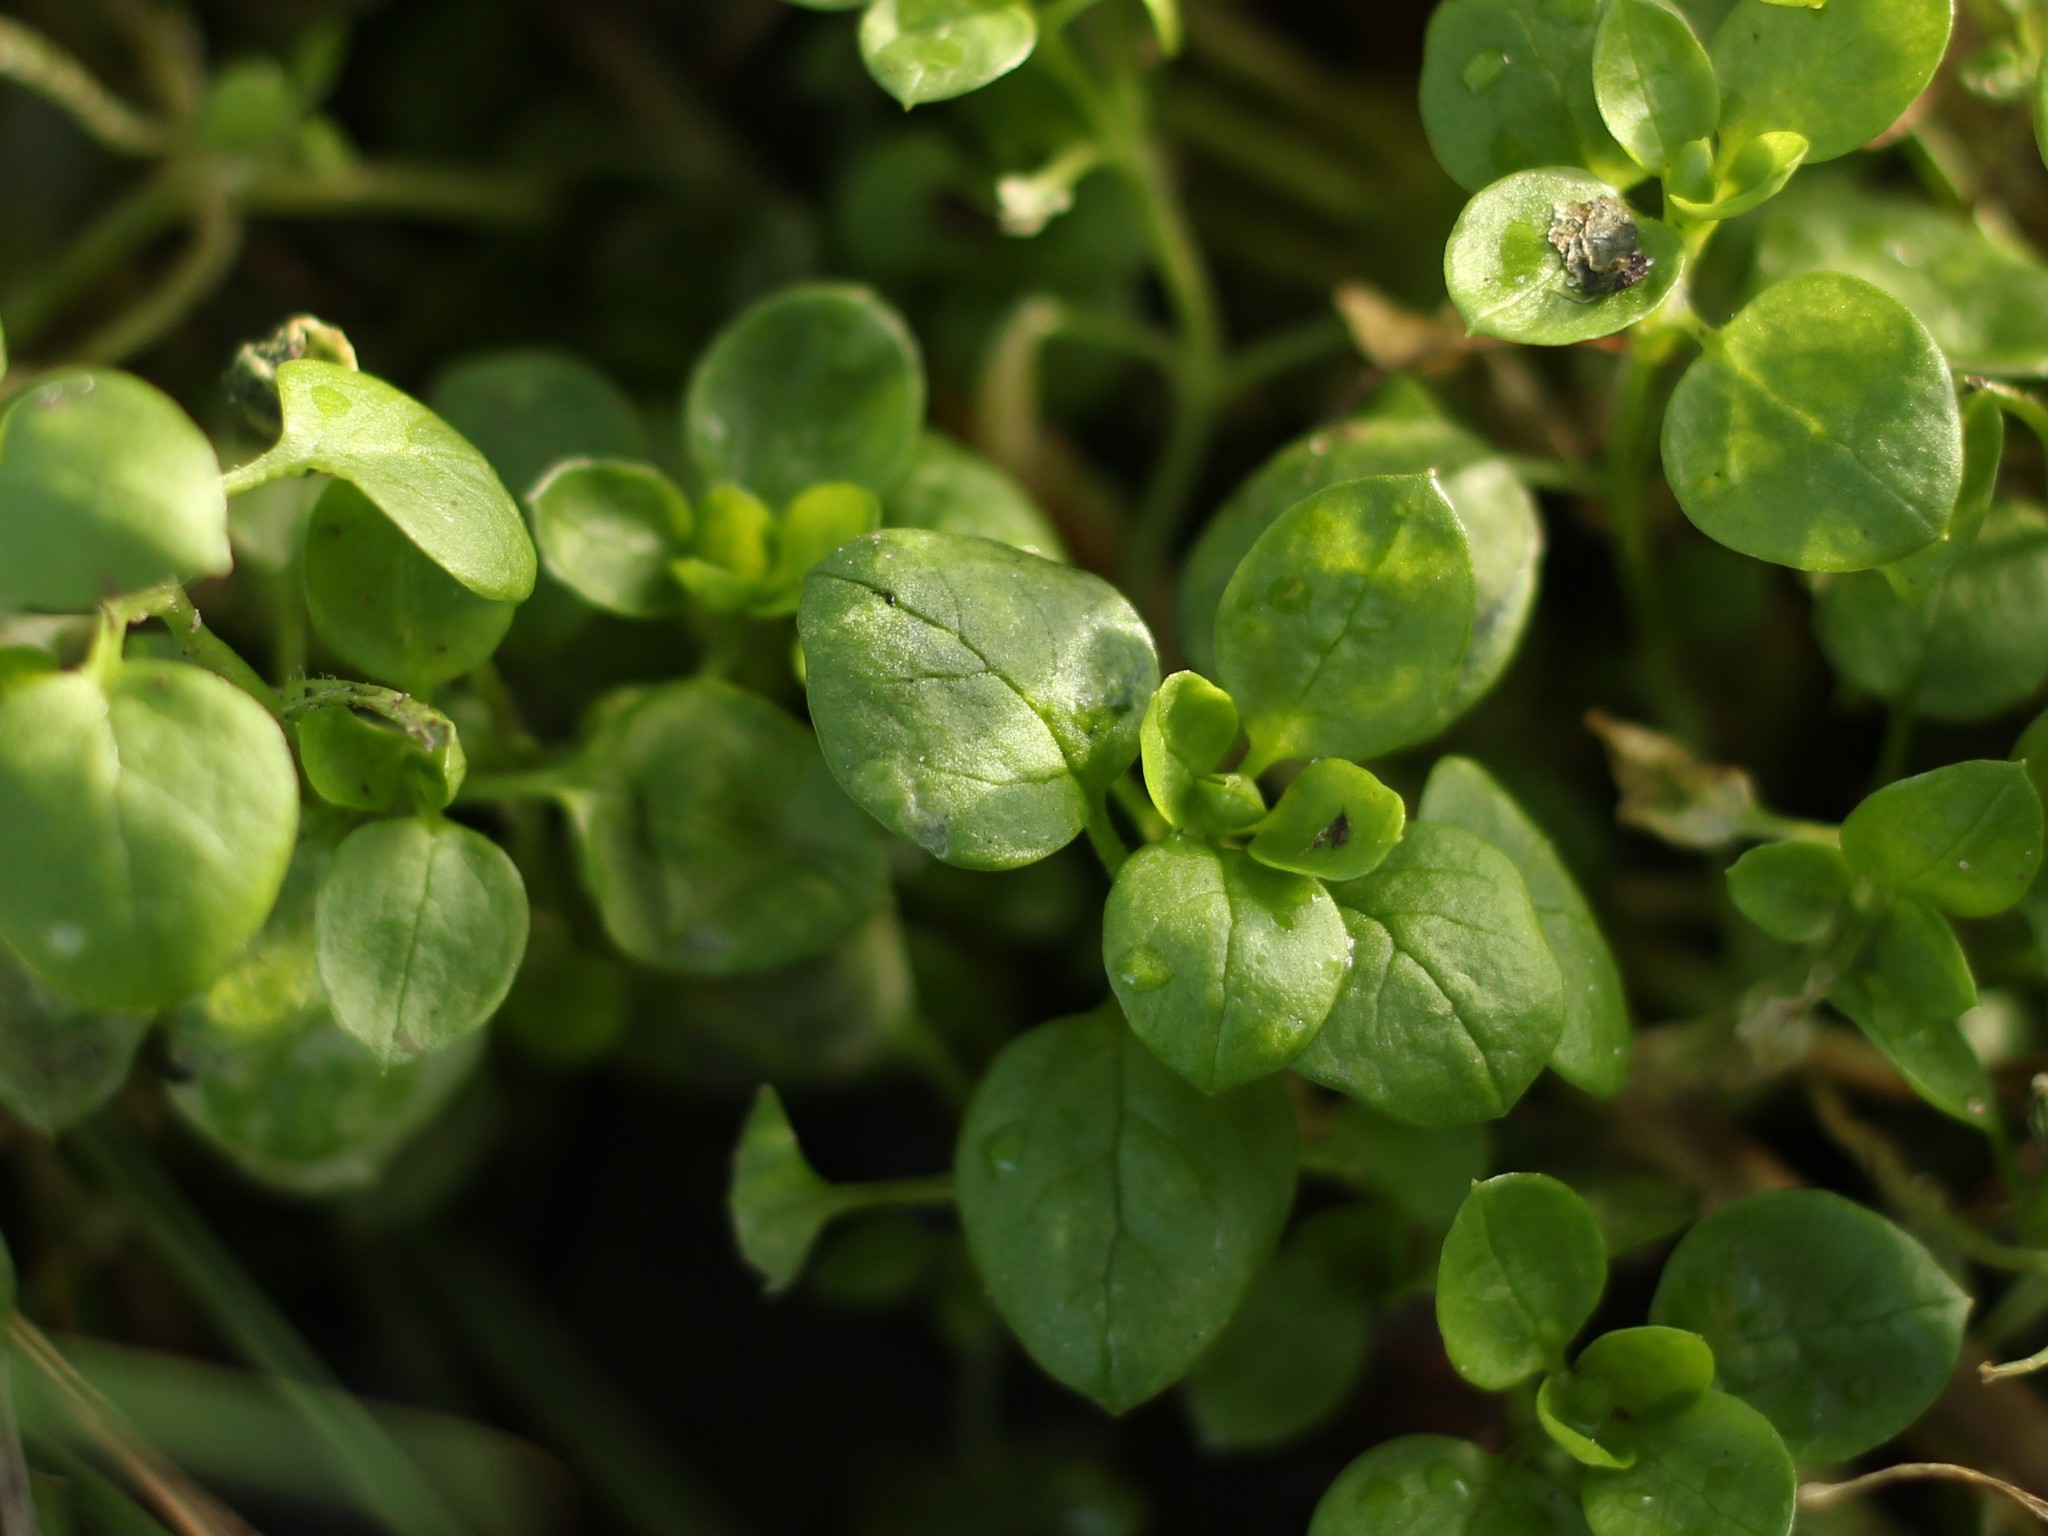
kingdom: Plantae
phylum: Tracheophyta
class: Magnoliopsida
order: Caryophyllales
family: Caryophyllaceae
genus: Stellaria
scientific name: Stellaria media
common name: Common chickweed
